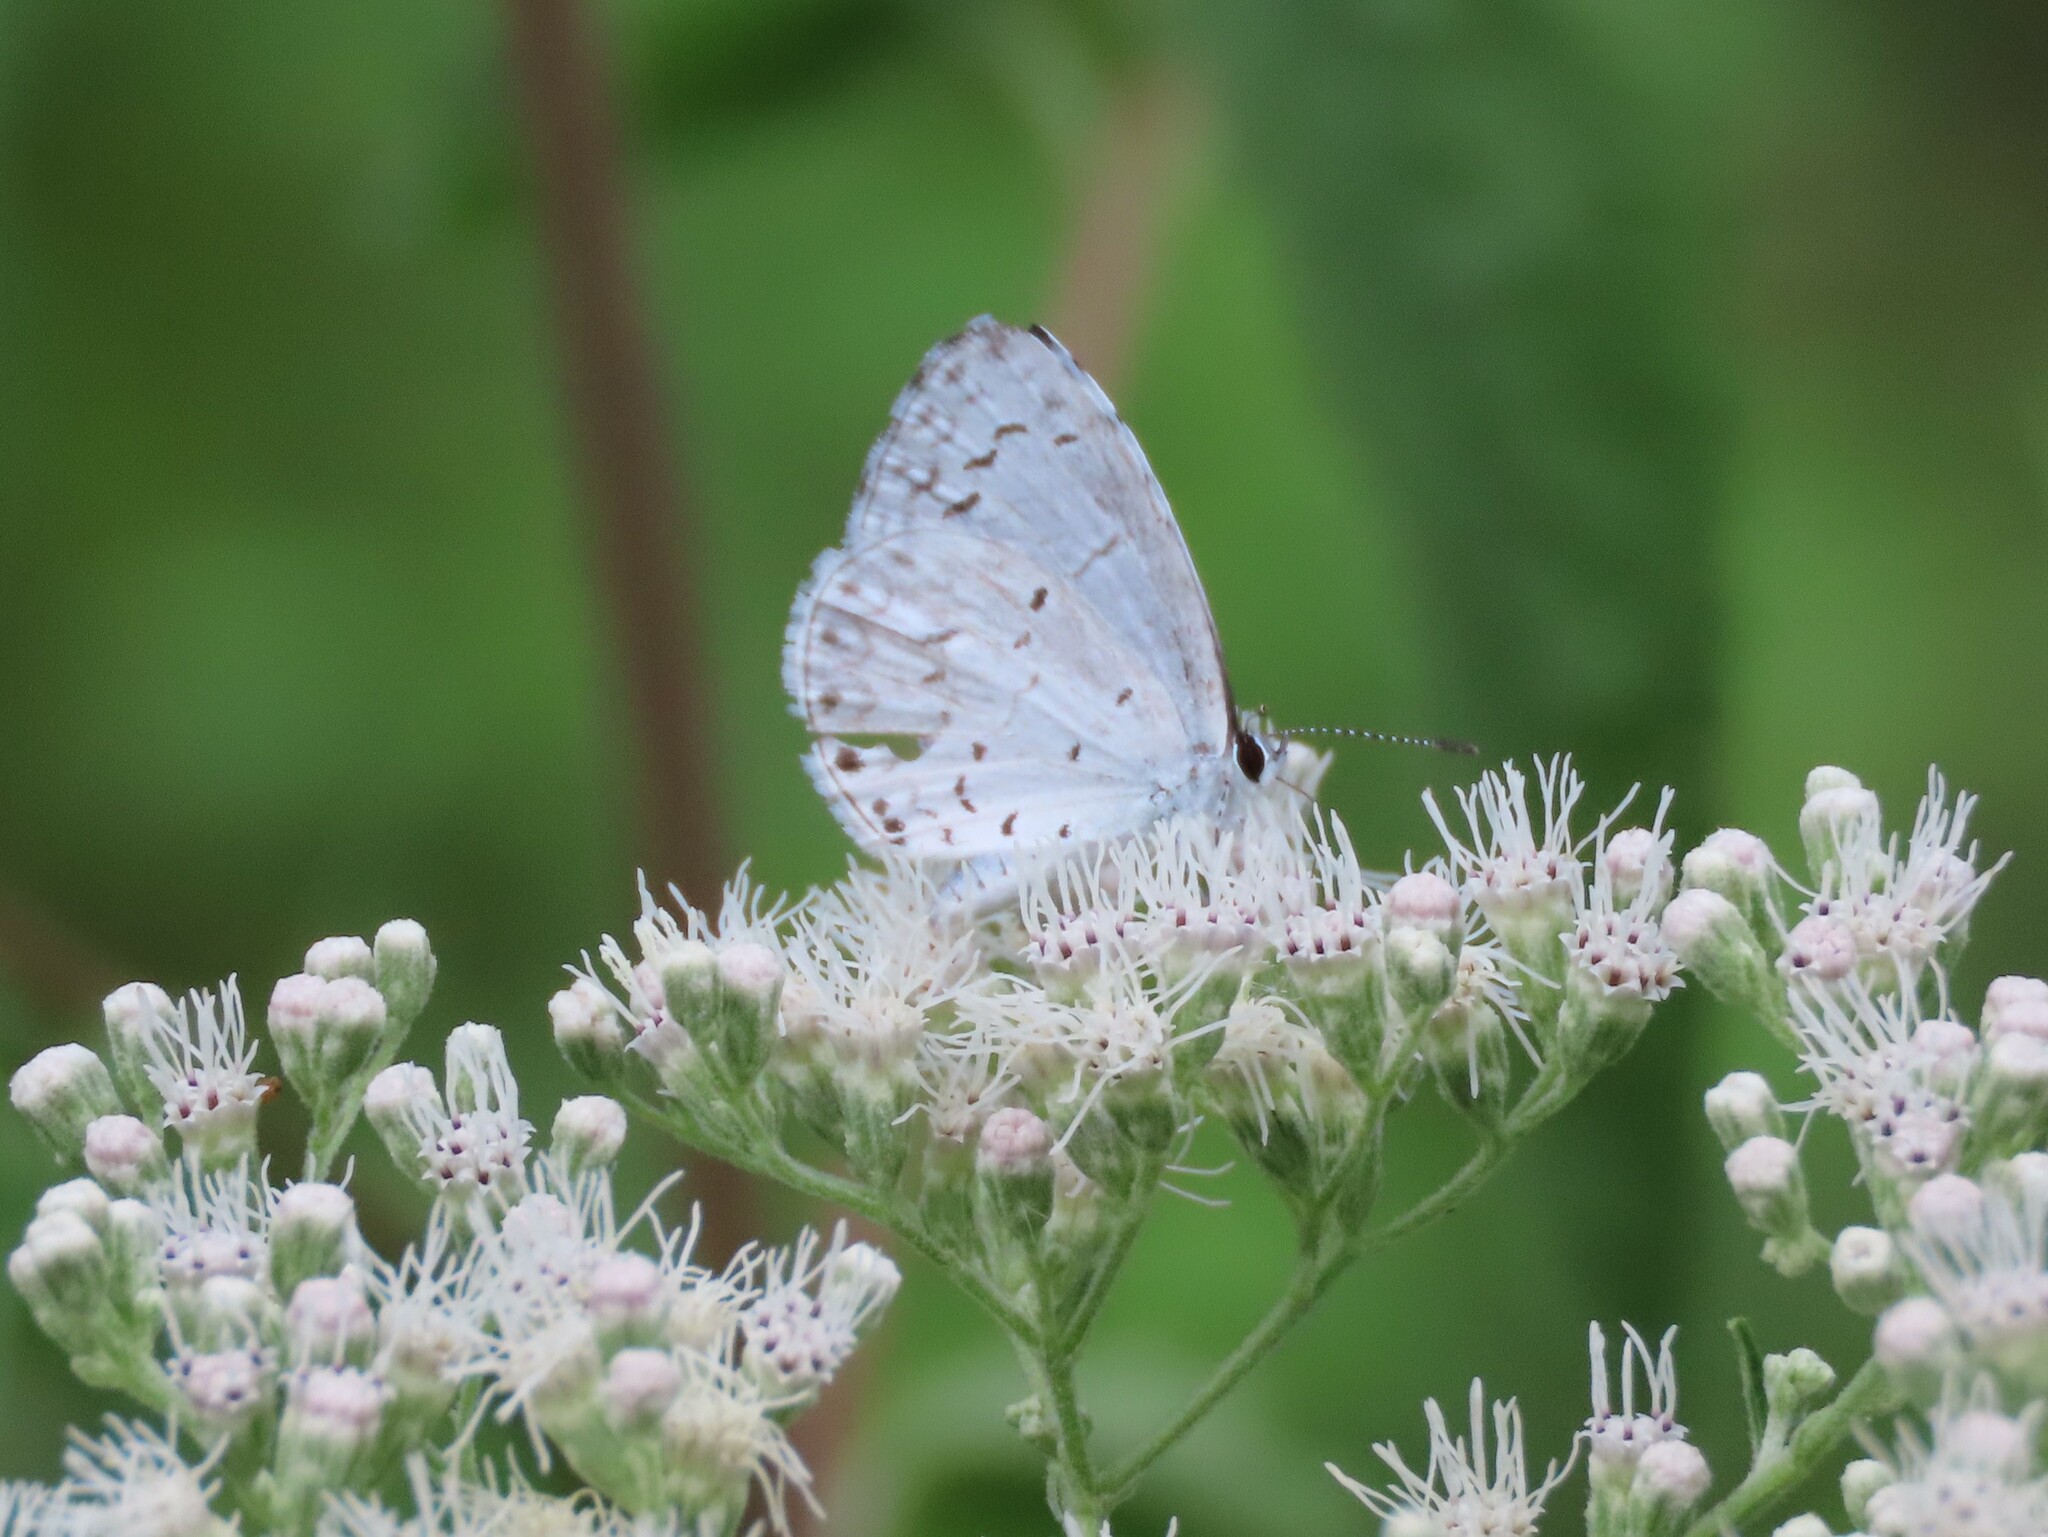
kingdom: Animalia
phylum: Arthropoda
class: Insecta
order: Lepidoptera
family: Lycaenidae
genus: Cyaniris
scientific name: Cyaniris neglecta
